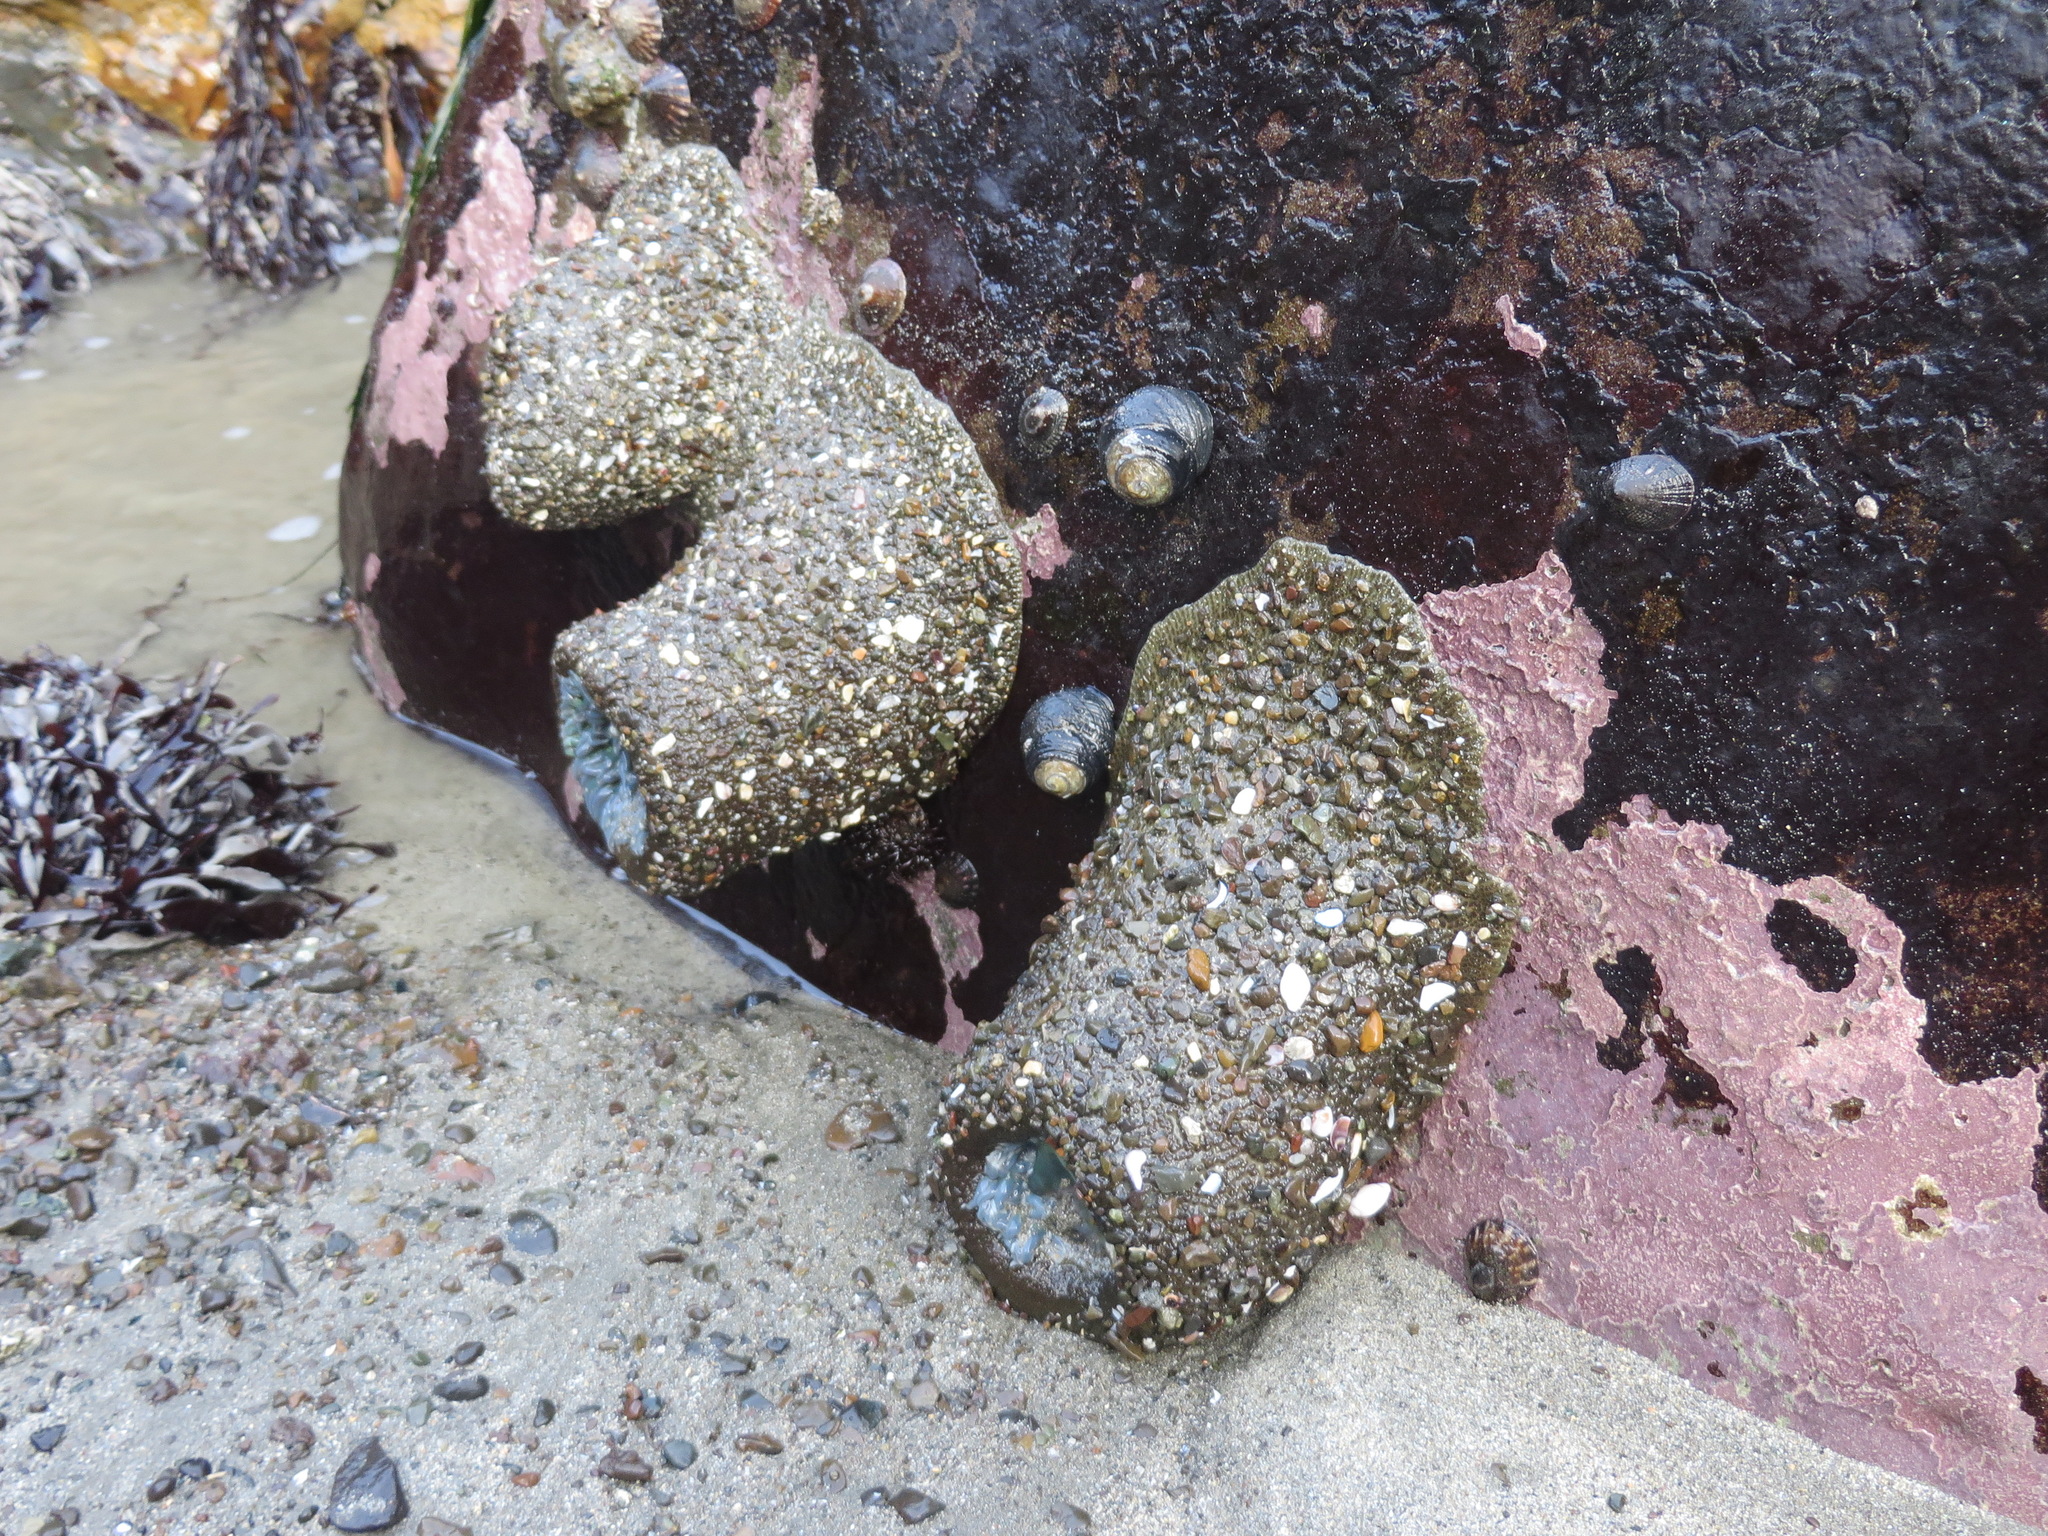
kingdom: Animalia
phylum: Cnidaria
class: Anthozoa
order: Actiniaria
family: Actiniidae
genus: Anthopleura
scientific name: Anthopleura xanthogrammica
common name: Giant green anemone
